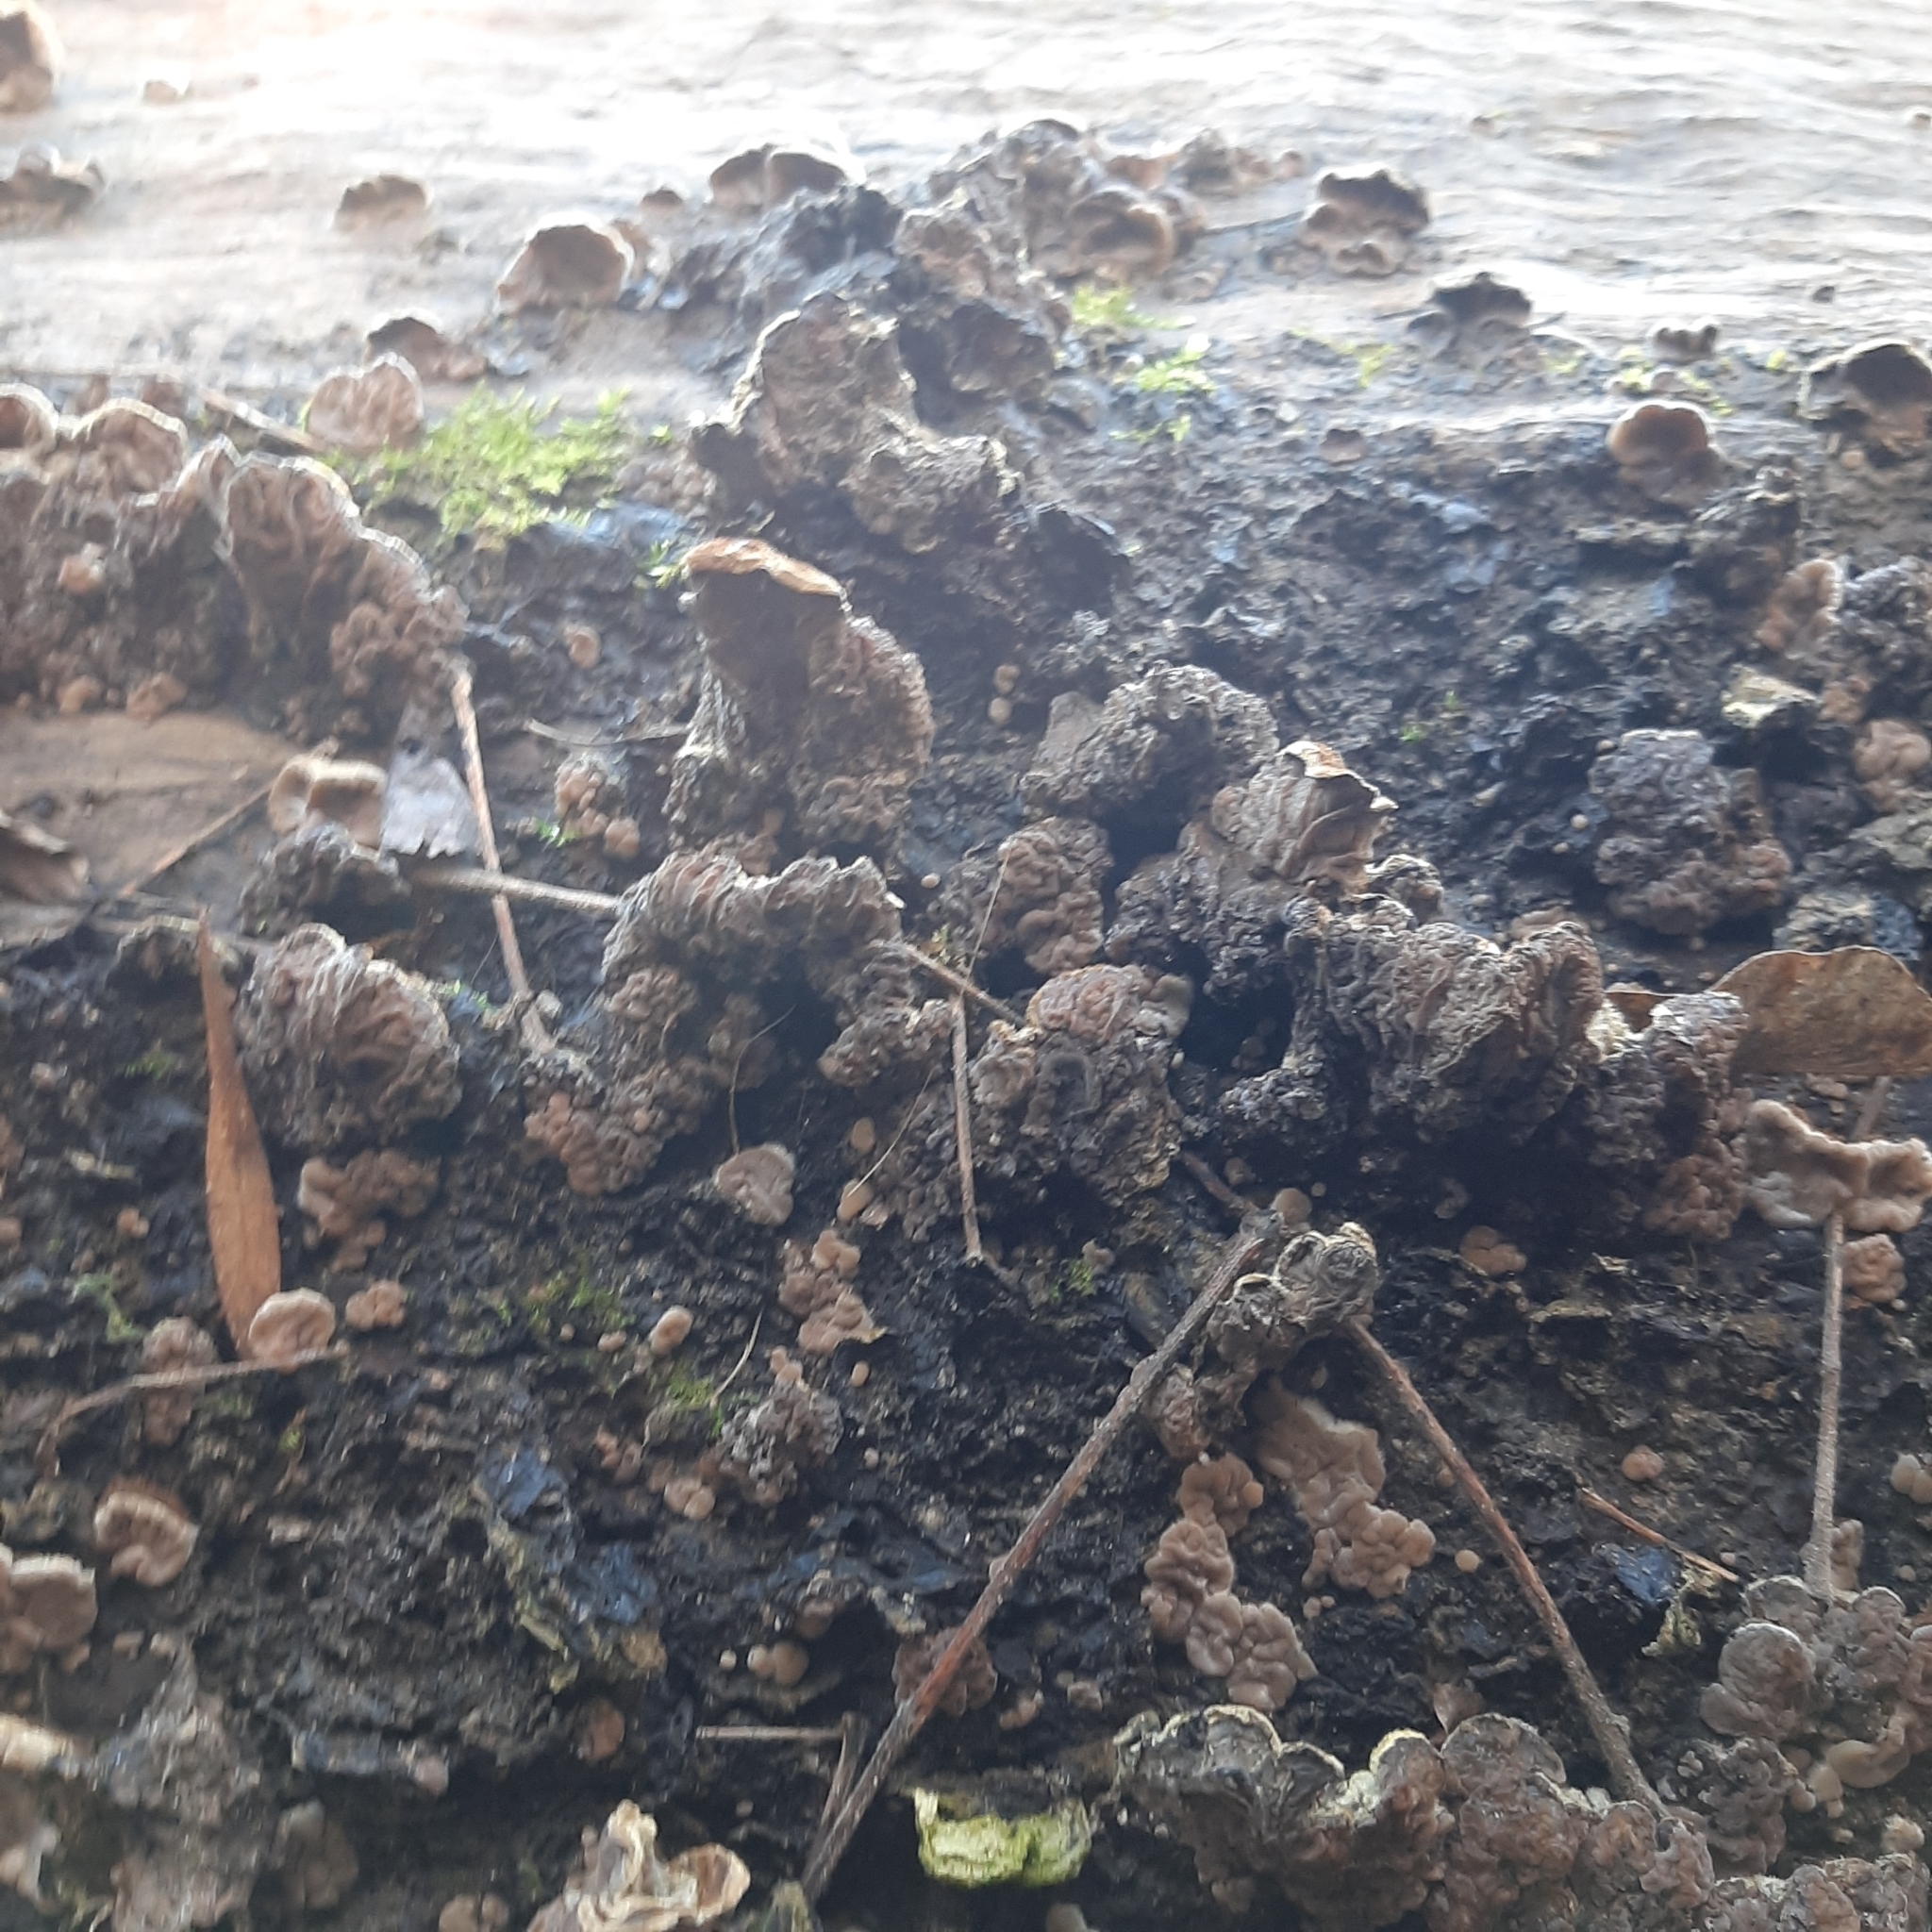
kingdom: Fungi
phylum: Basidiomycota
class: Agaricomycetes
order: Auriculariales
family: Auriculariaceae
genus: Auricularia
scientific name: Auricularia mesenterica
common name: Tripe fungus
